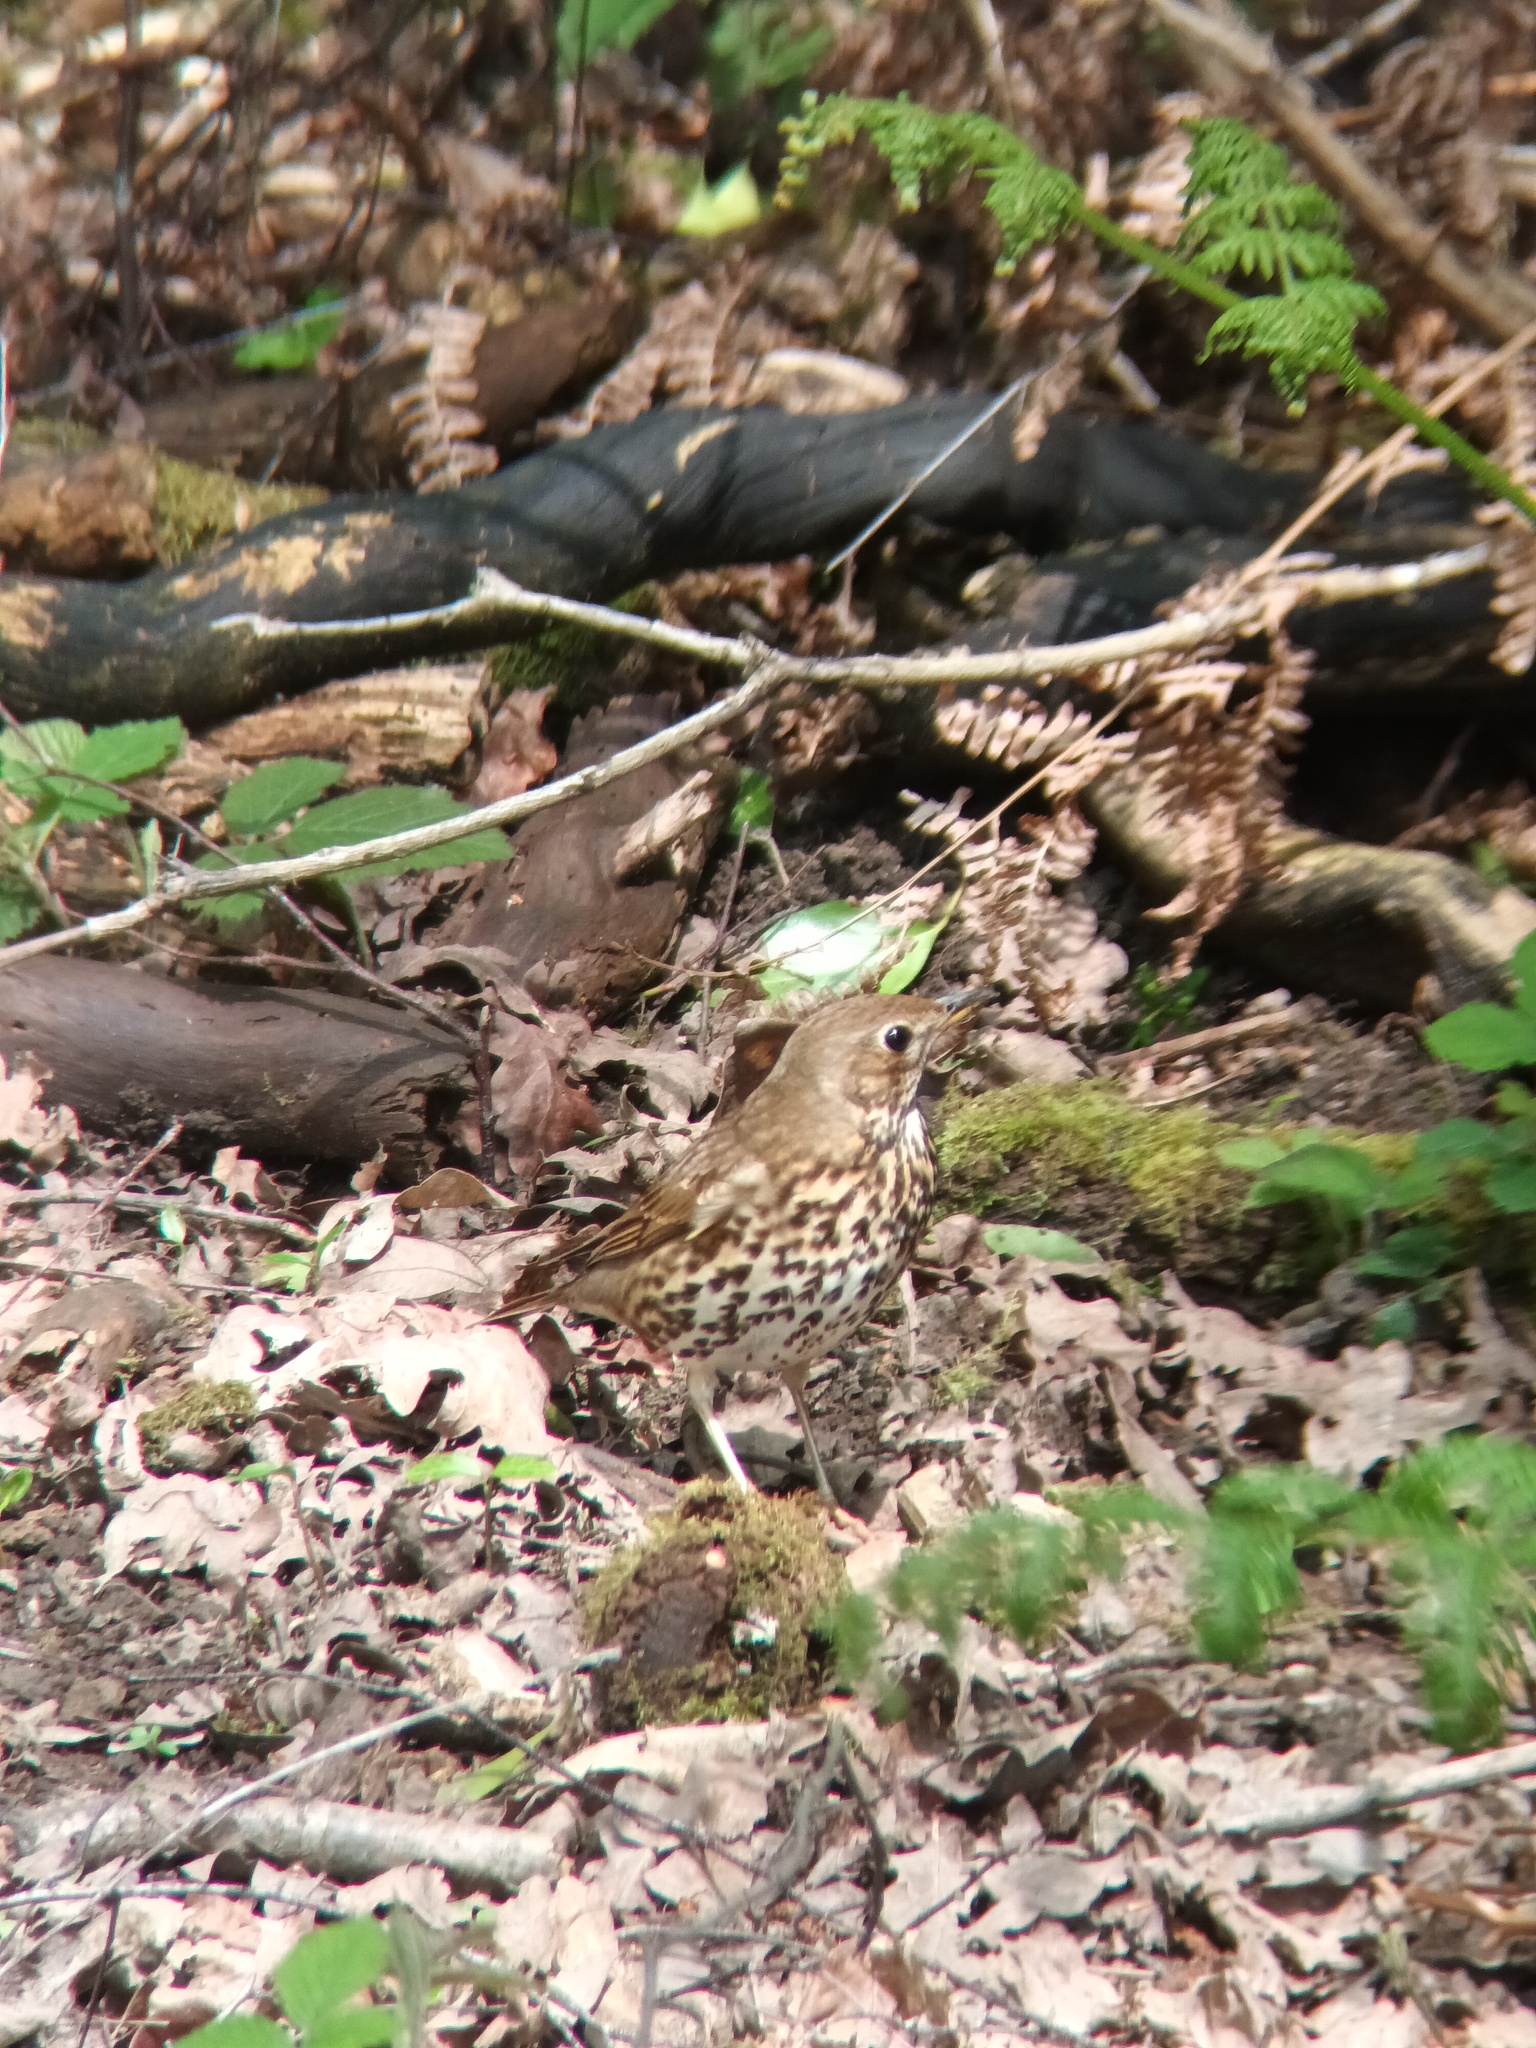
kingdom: Animalia
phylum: Chordata
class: Aves
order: Passeriformes
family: Turdidae
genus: Turdus
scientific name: Turdus philomelos
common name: Song thrush
